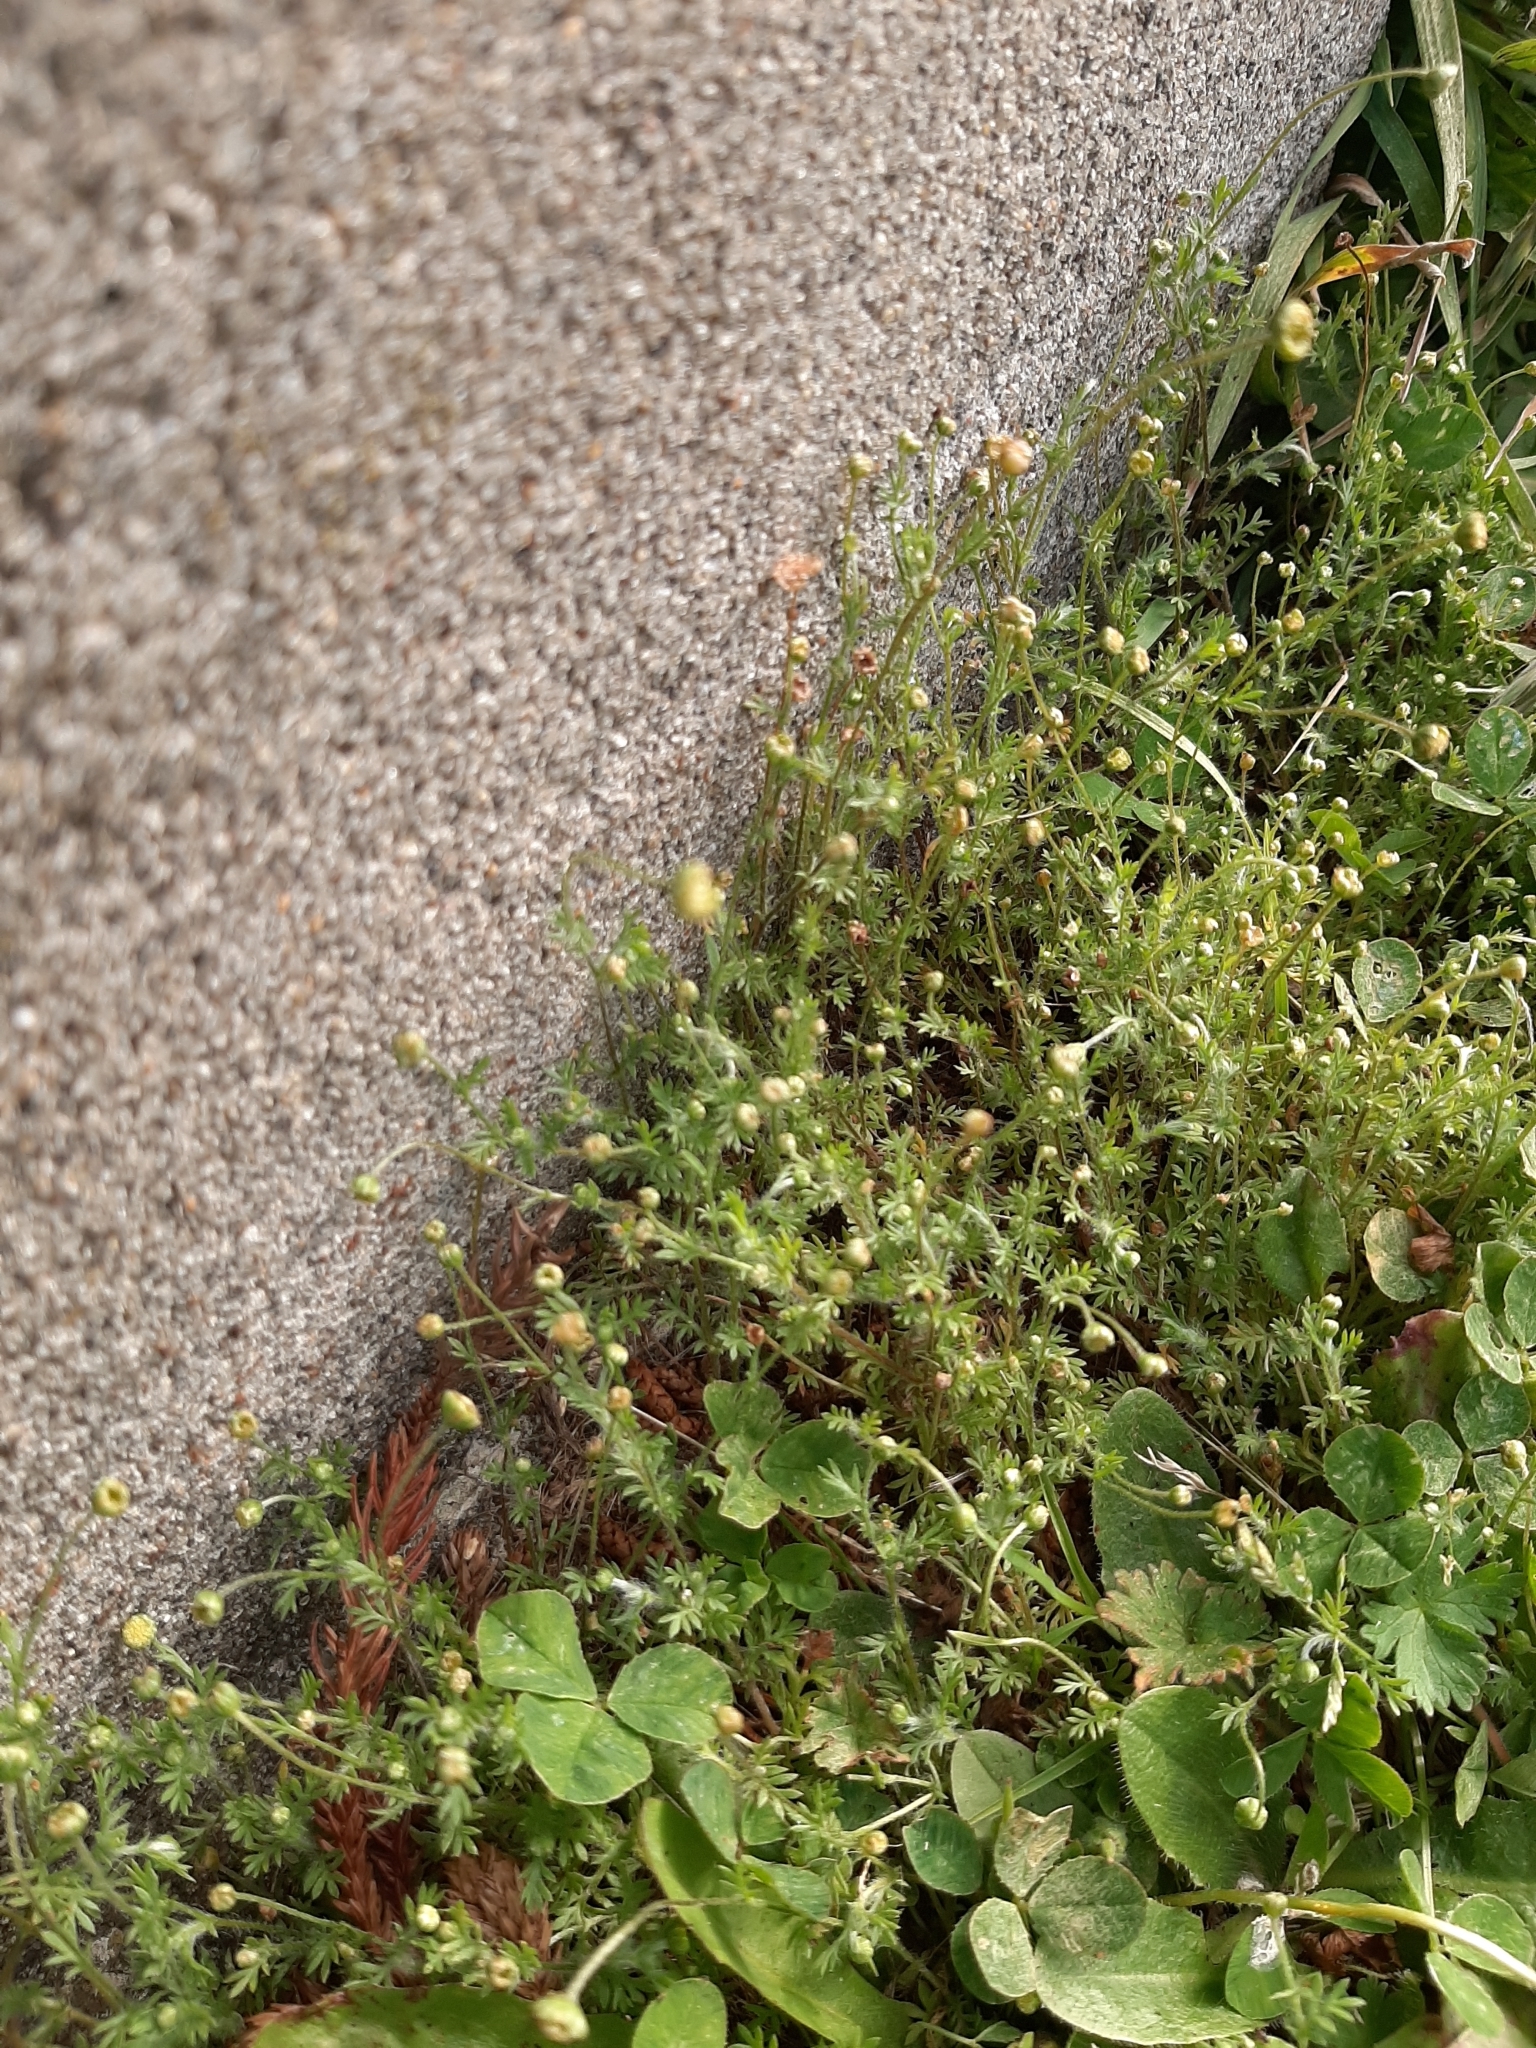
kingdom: Plantae
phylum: Tracheophyta
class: Magnoliopsida
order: Asterales
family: Asteraceae
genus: Cotula
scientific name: Cotula australis
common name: Australian waterbuttons
